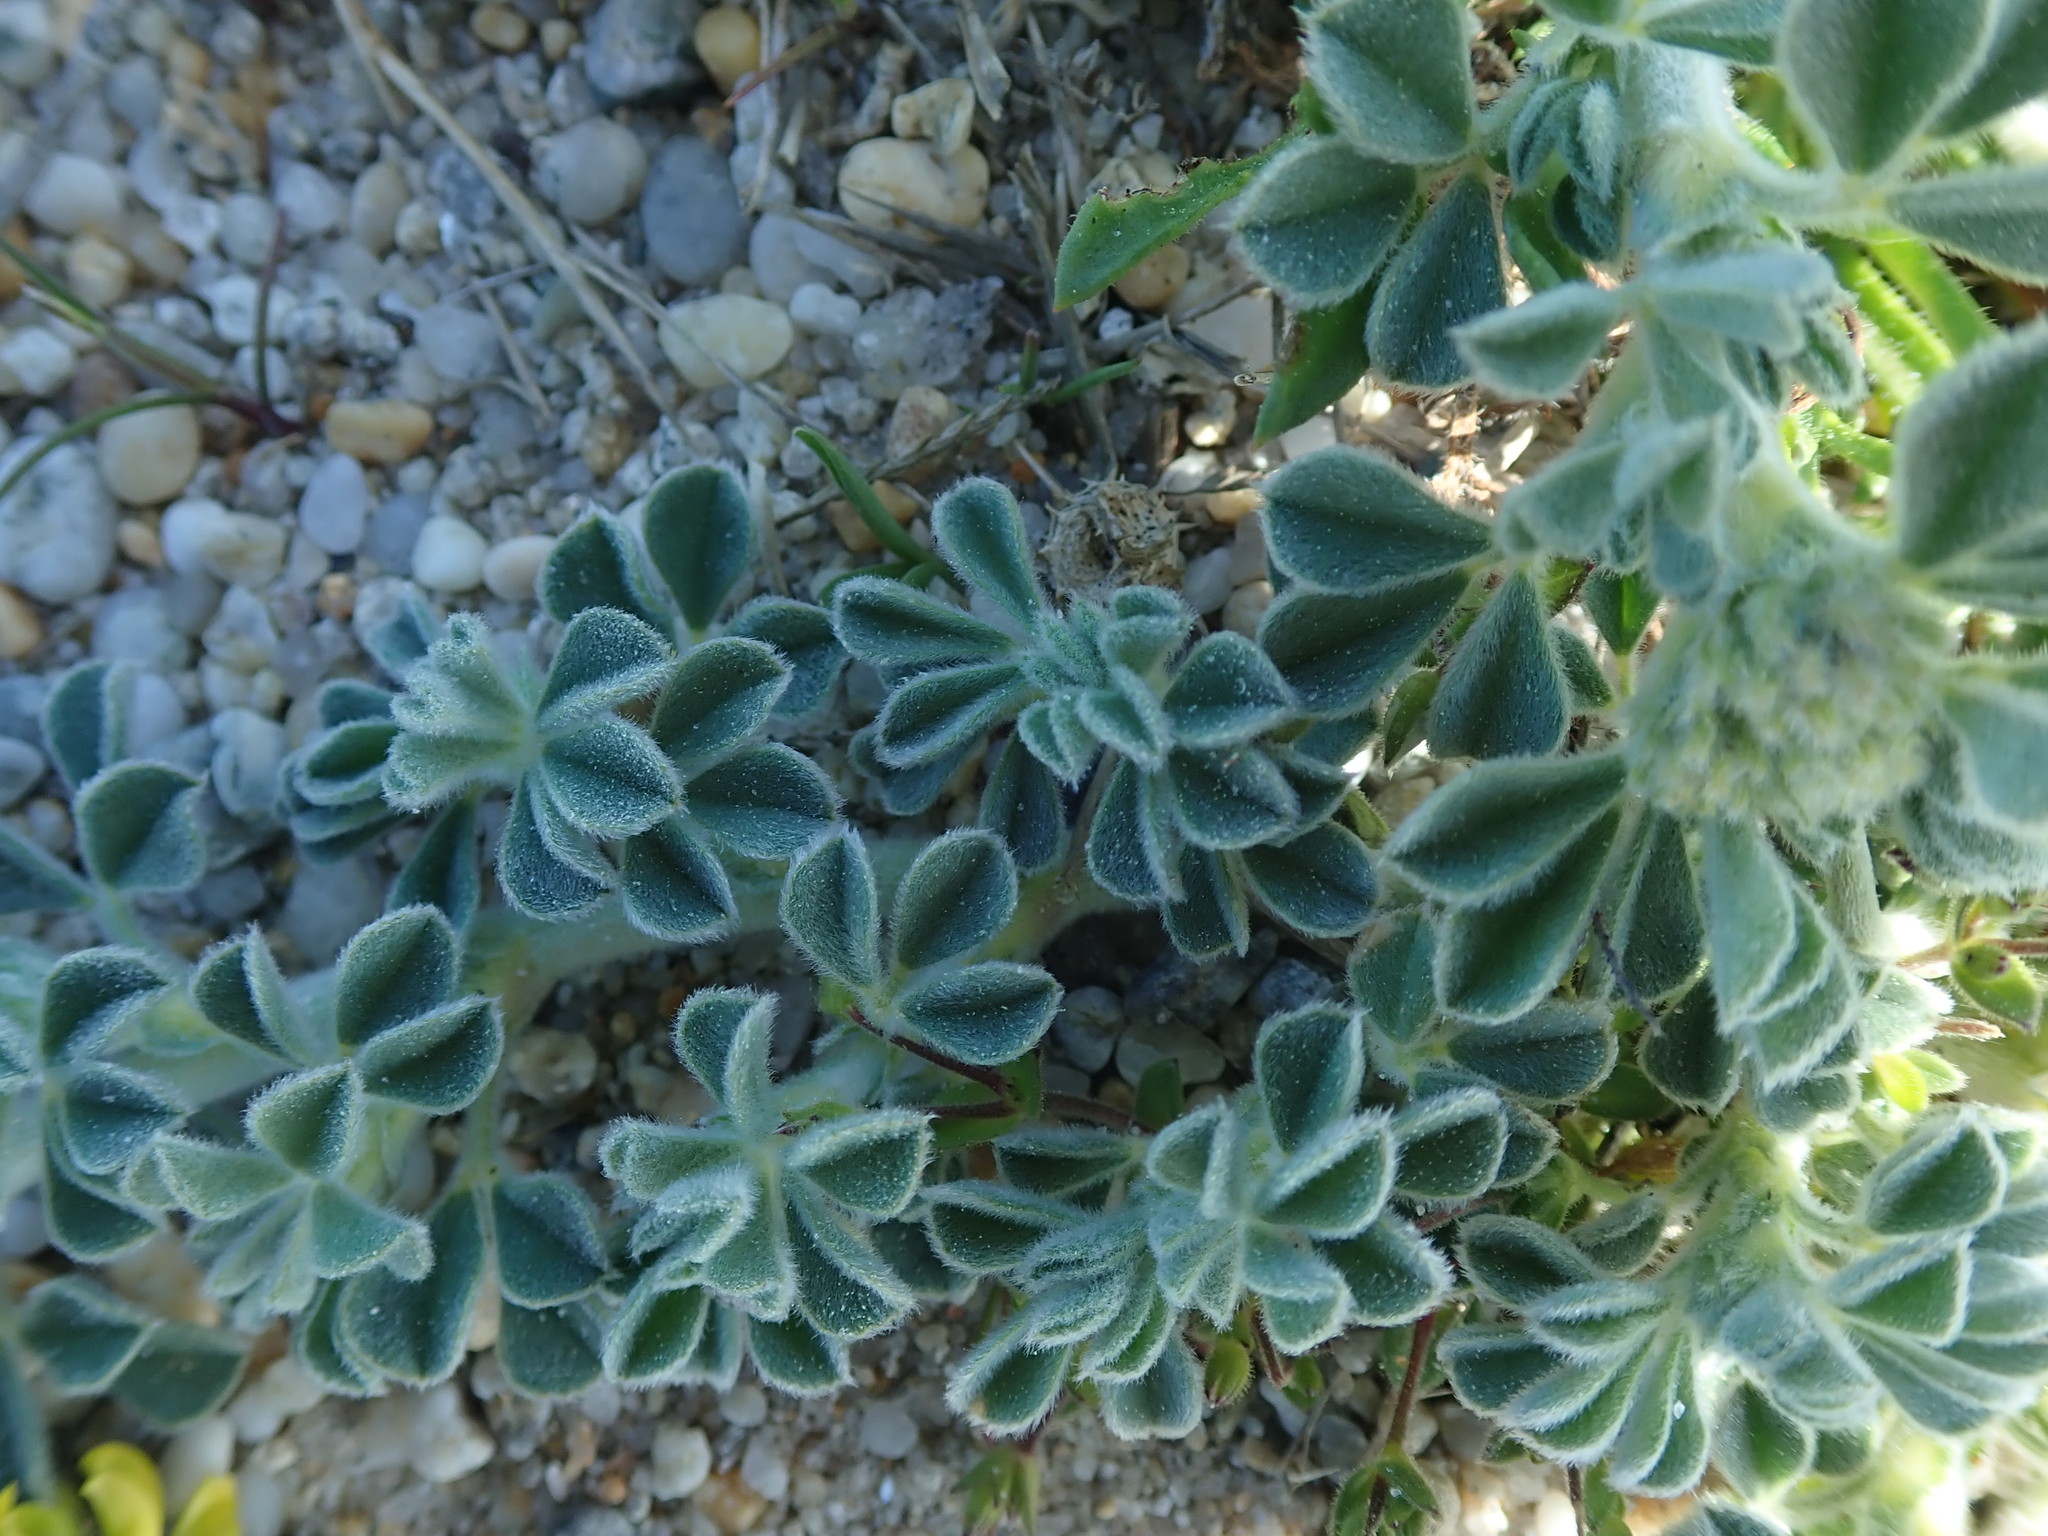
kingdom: Plantae
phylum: Tracheophyta
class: Magnoliopsida
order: Fabales
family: Fabaceae
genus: Medicago
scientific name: Medicago marina
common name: Sea medick
